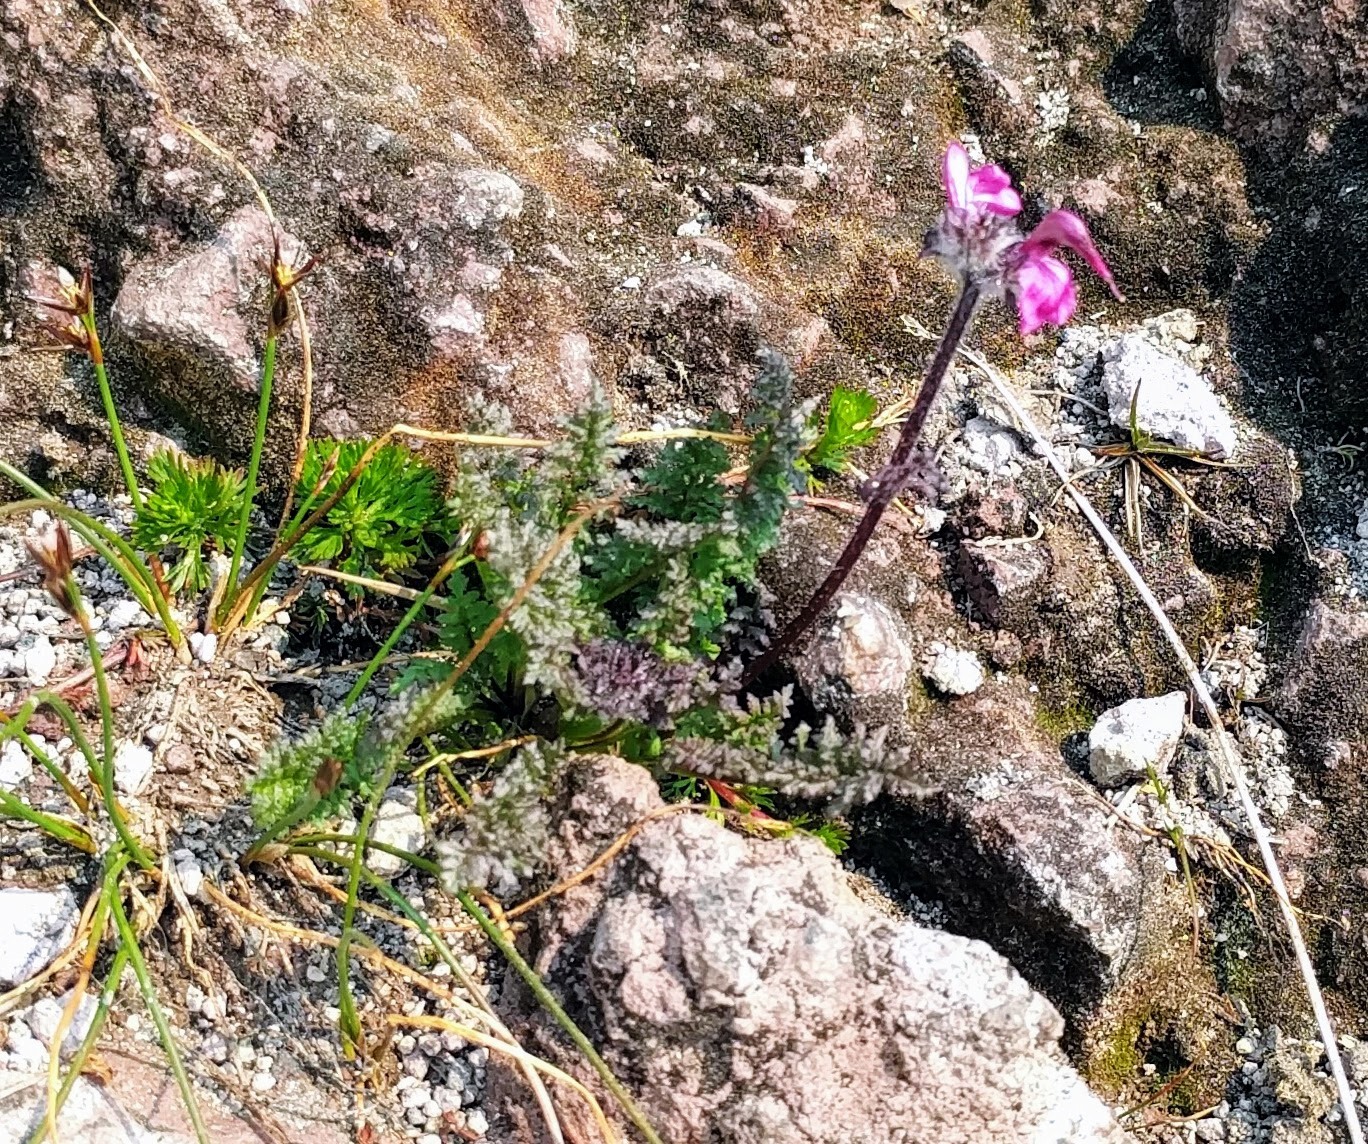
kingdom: Plantae
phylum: Tracheophyta
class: Magnoliopsida
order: Lamiales
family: Orobanchaceae
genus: Pedicularis
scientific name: Pedicularis ornithorhynchos
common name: Bird's-beak lousewort
